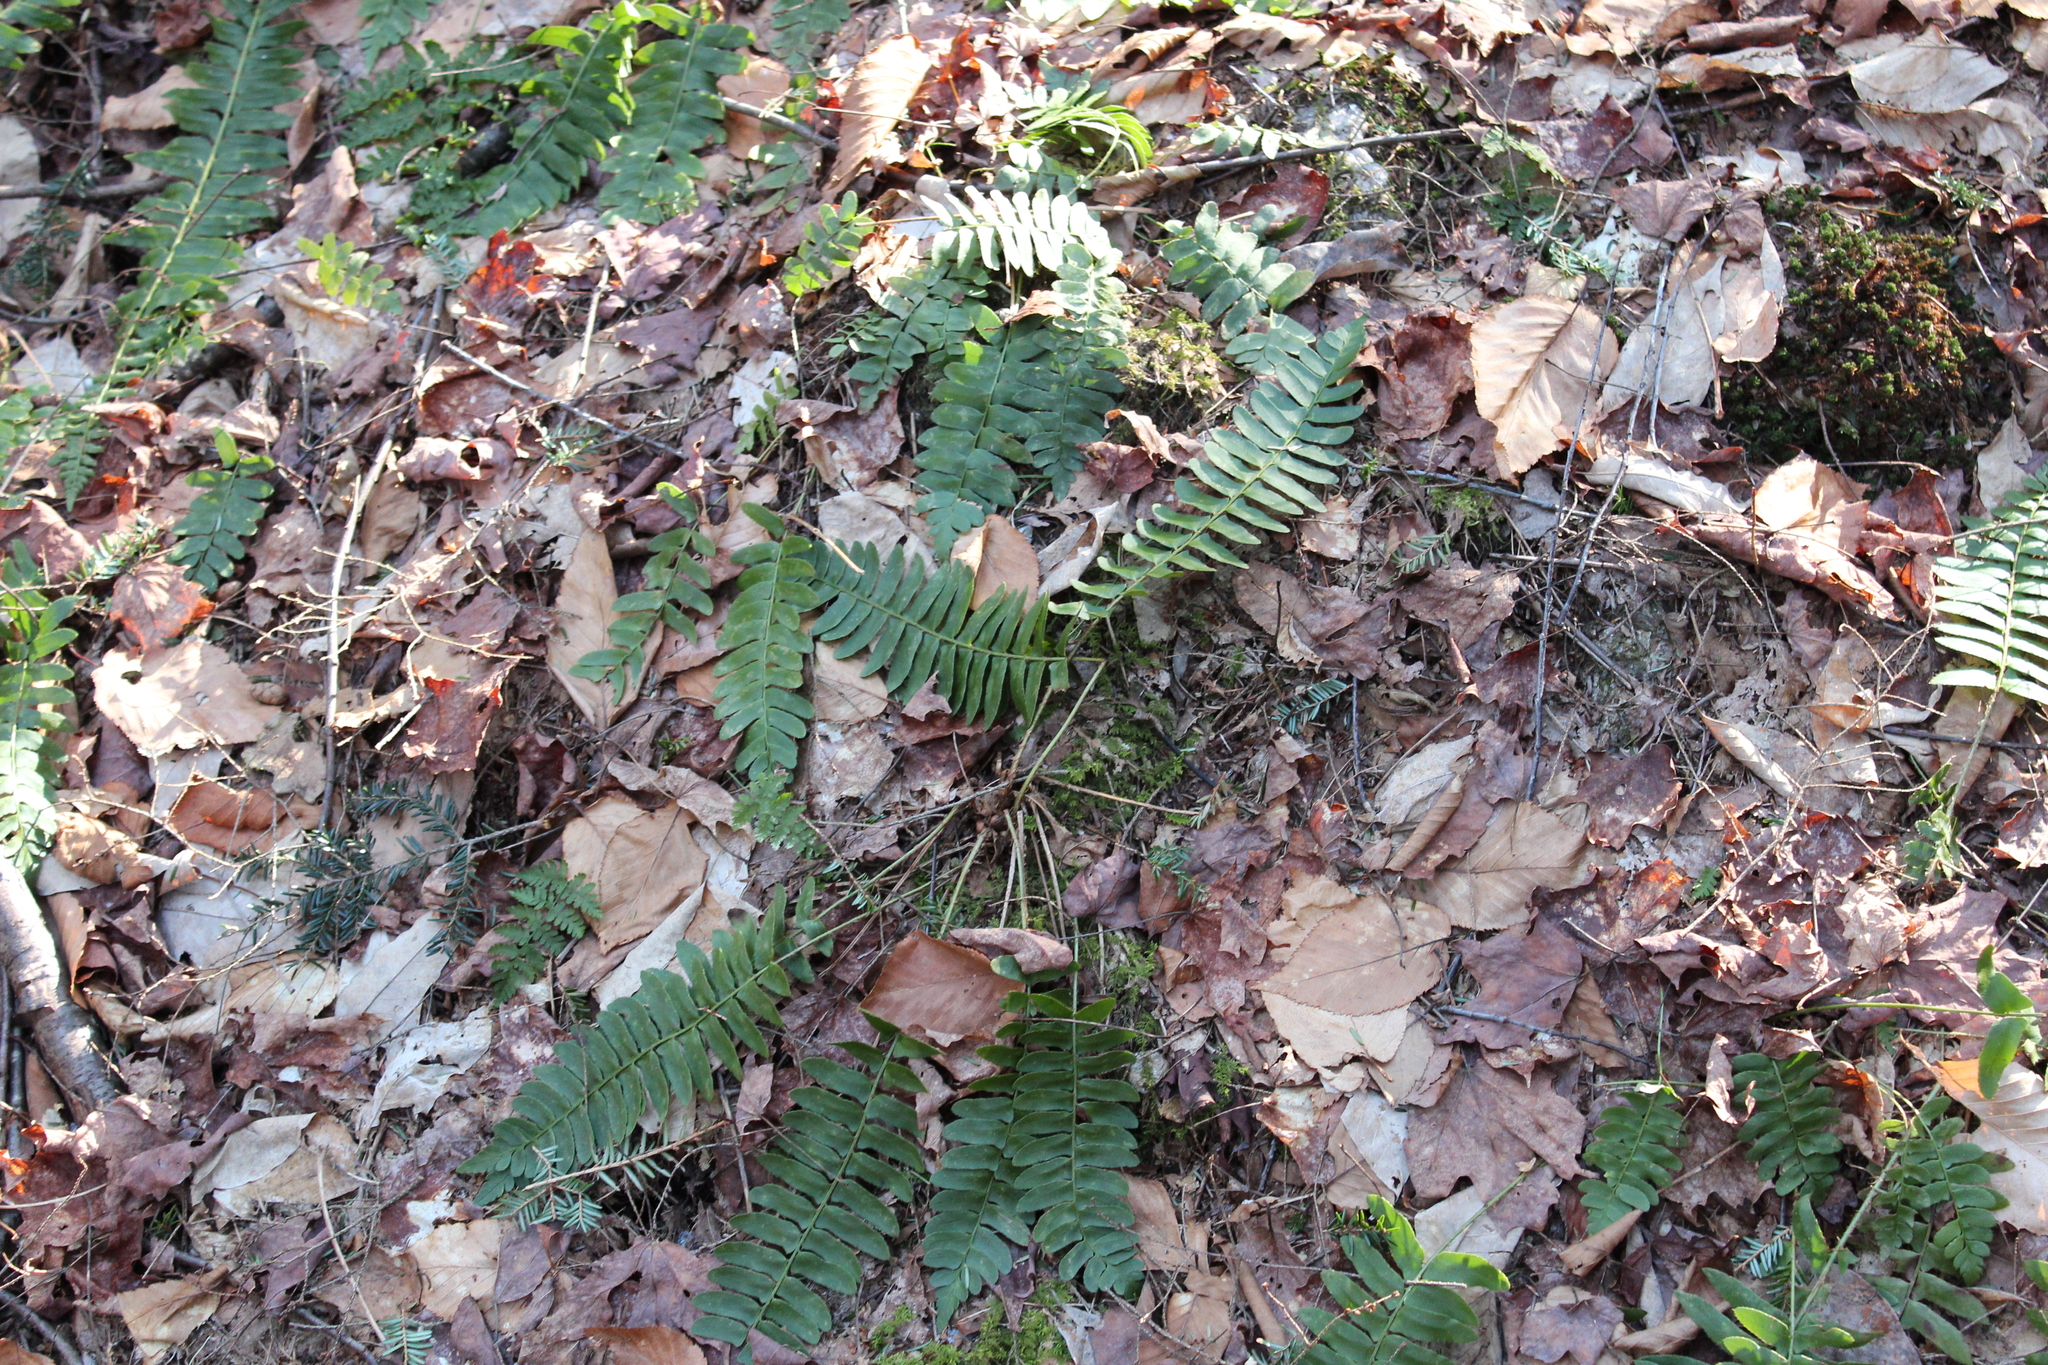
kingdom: Plantae
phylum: Tracheophyta
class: Polypodiopsida
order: Polypodiales
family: Dryopteridaceae
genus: Polystichum
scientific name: Polystichum acrostichoides
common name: Christmas fern
